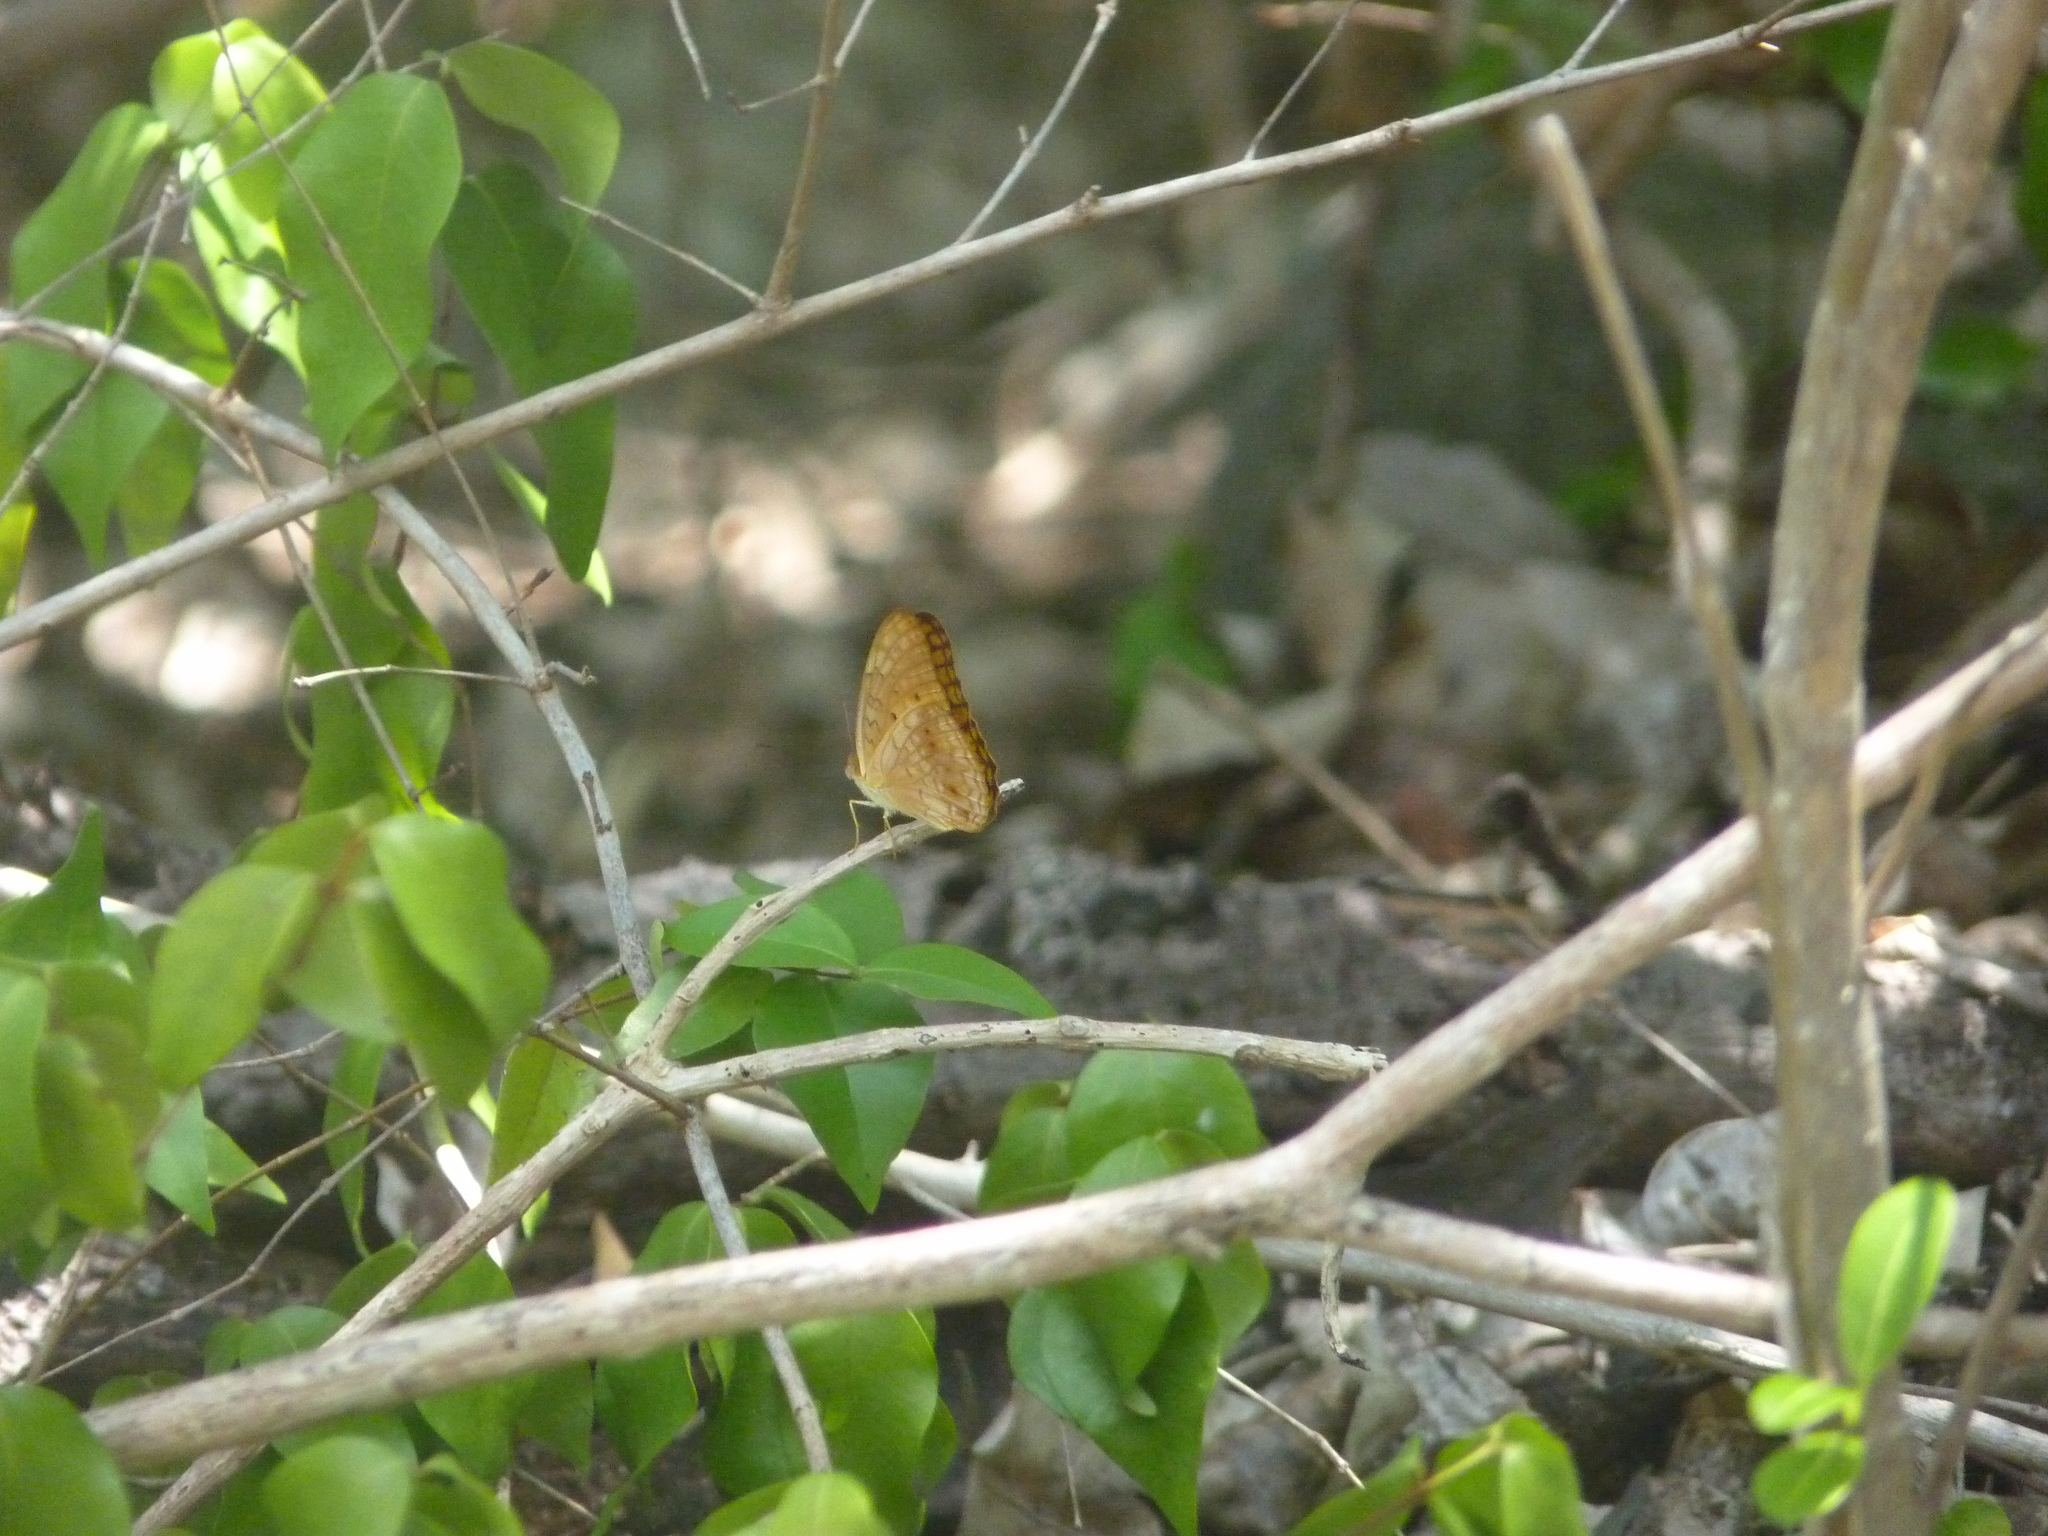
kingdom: Animalia
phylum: Arthropoda
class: Insecta
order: Lepidoptera
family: Nymphalidae
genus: Phalanta
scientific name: Phalanta phalantha
